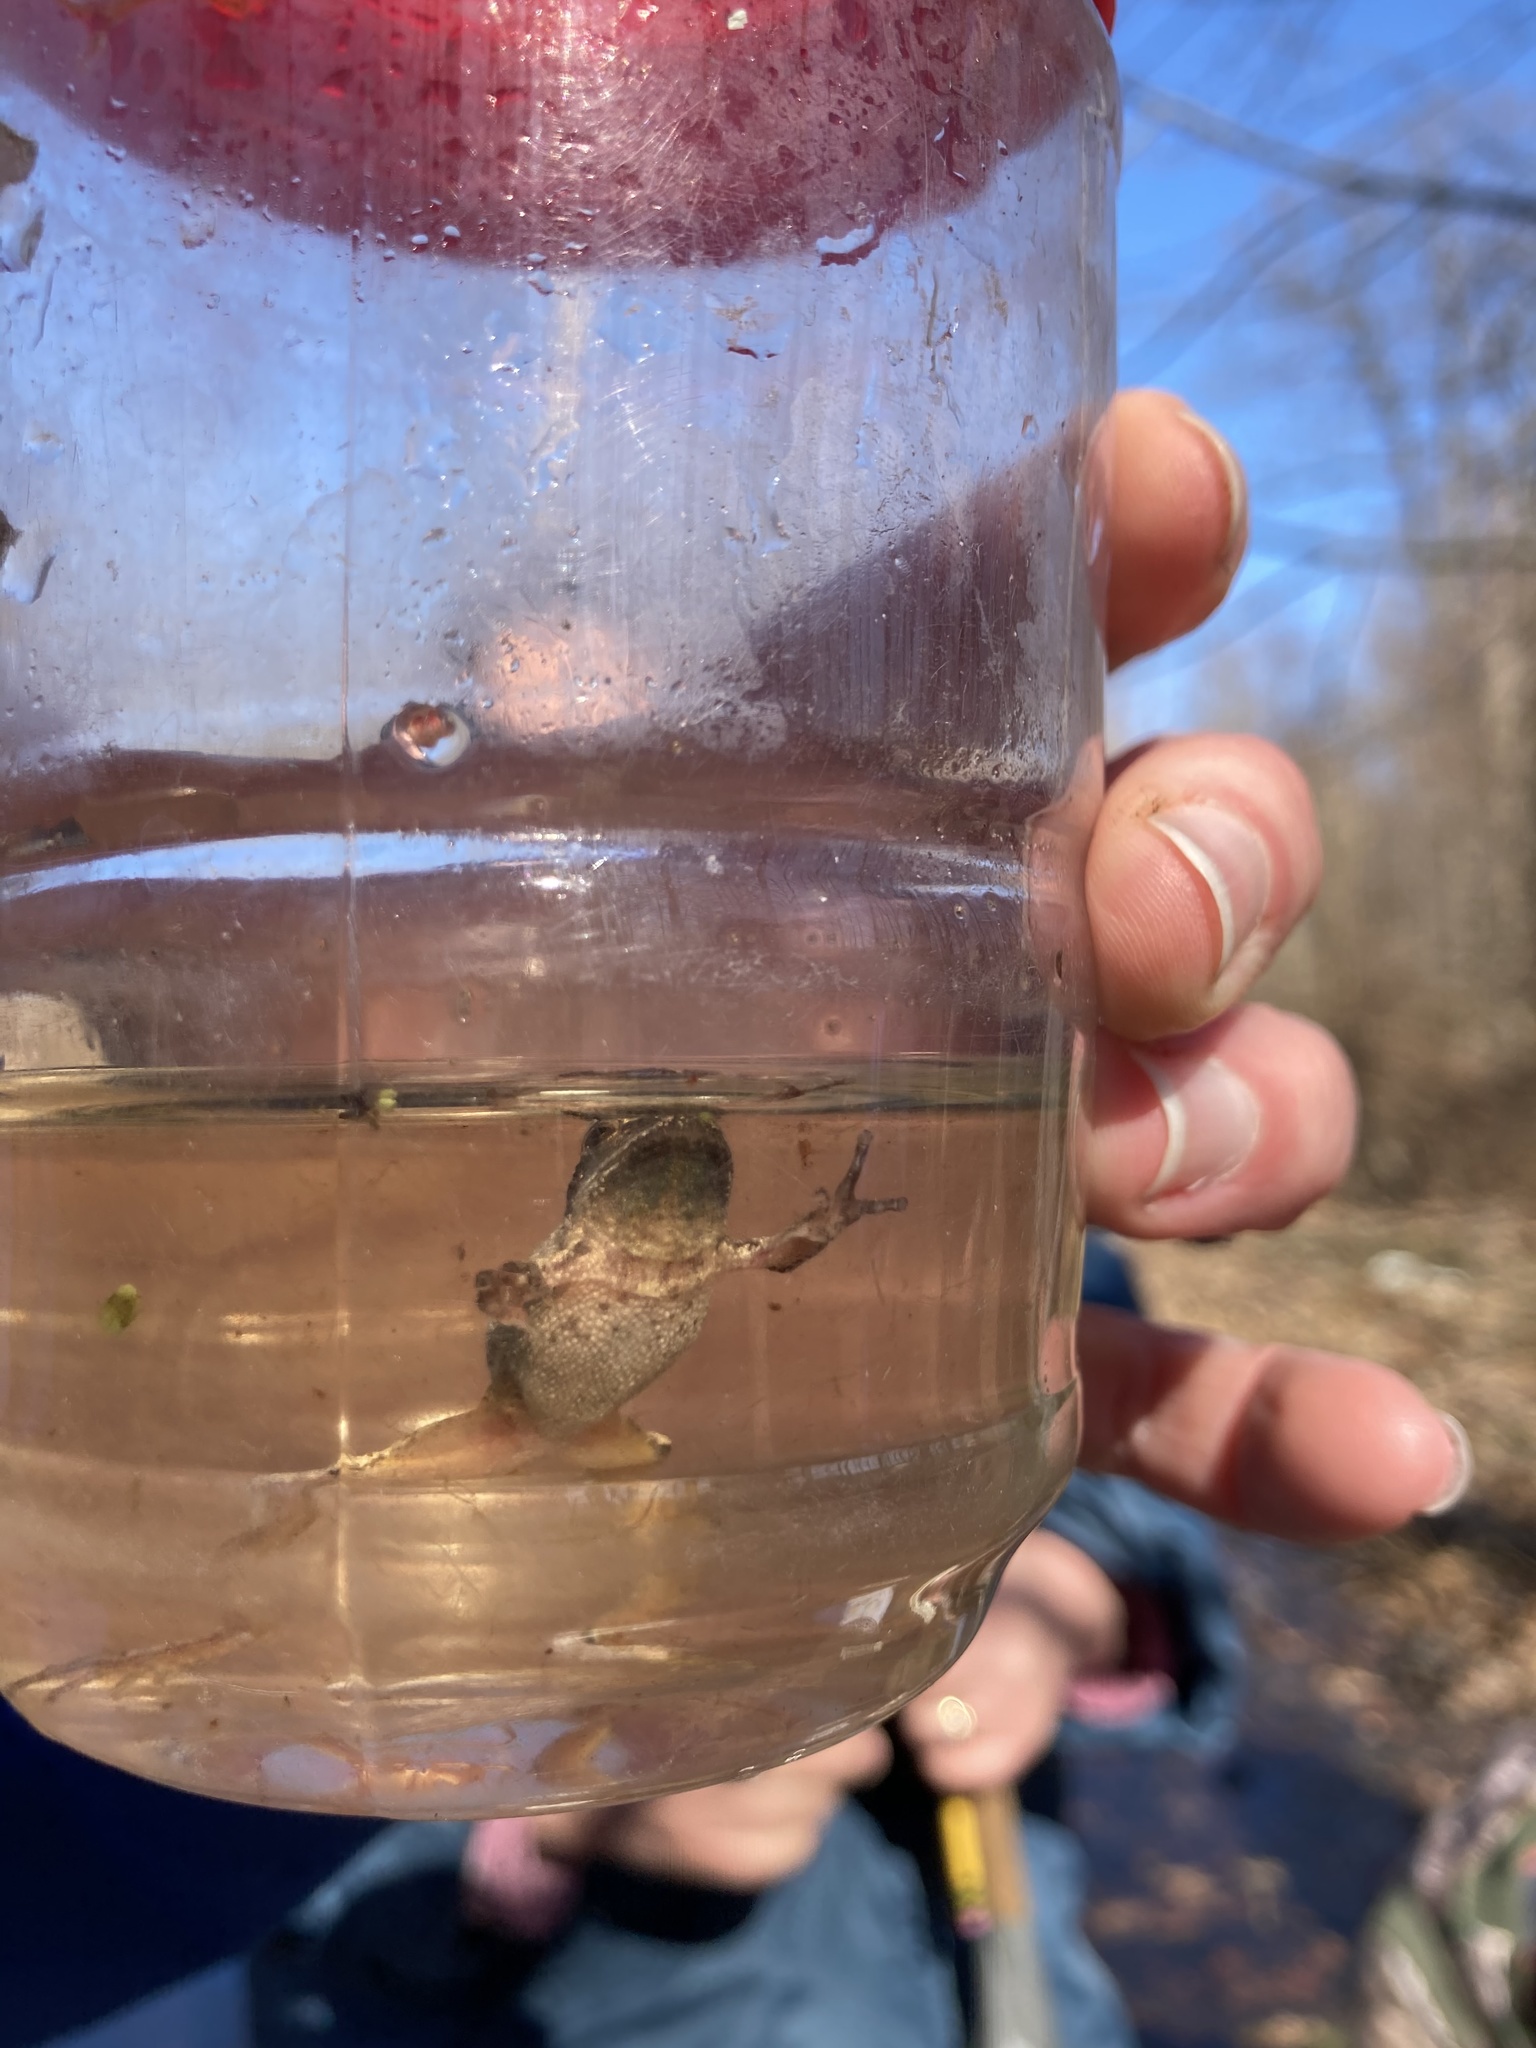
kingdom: Animalia
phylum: Chordata
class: Amphibia
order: Anura
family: Hylidae
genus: Pseudacris
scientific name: Pseudacris crucifer
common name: Spring peeper
